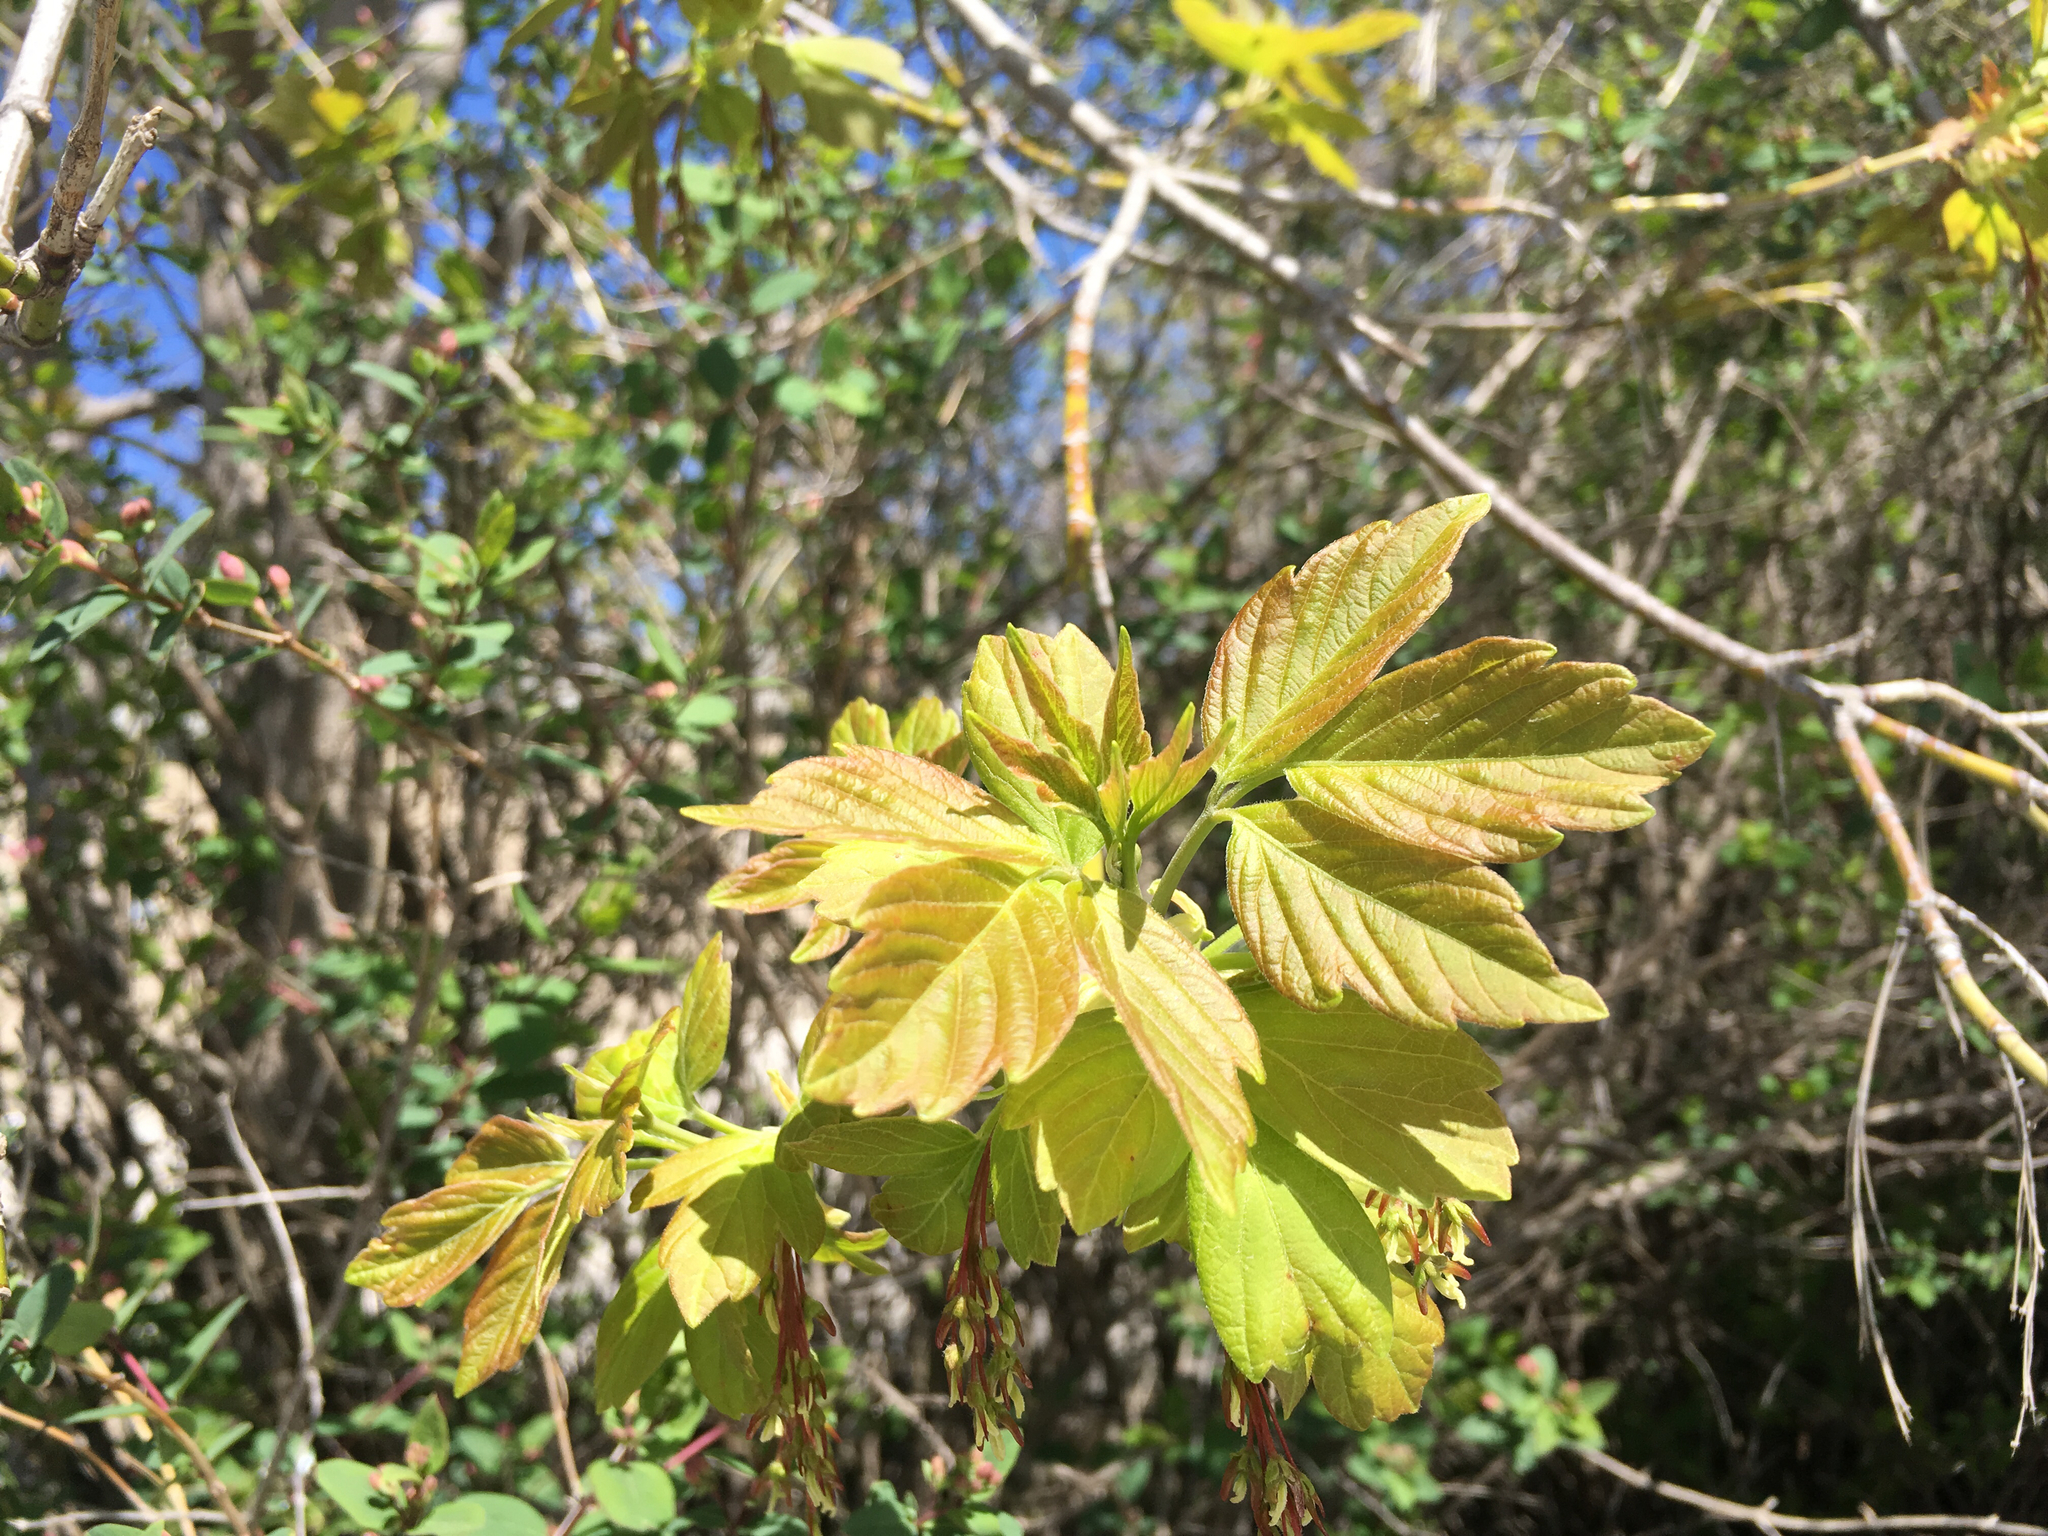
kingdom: Plantae
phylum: Tracheophyta
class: Magnoliopsida
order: Sapindales
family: Sapindaceae
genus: Acer
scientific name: Acer negundo
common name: Ashleaf maple
